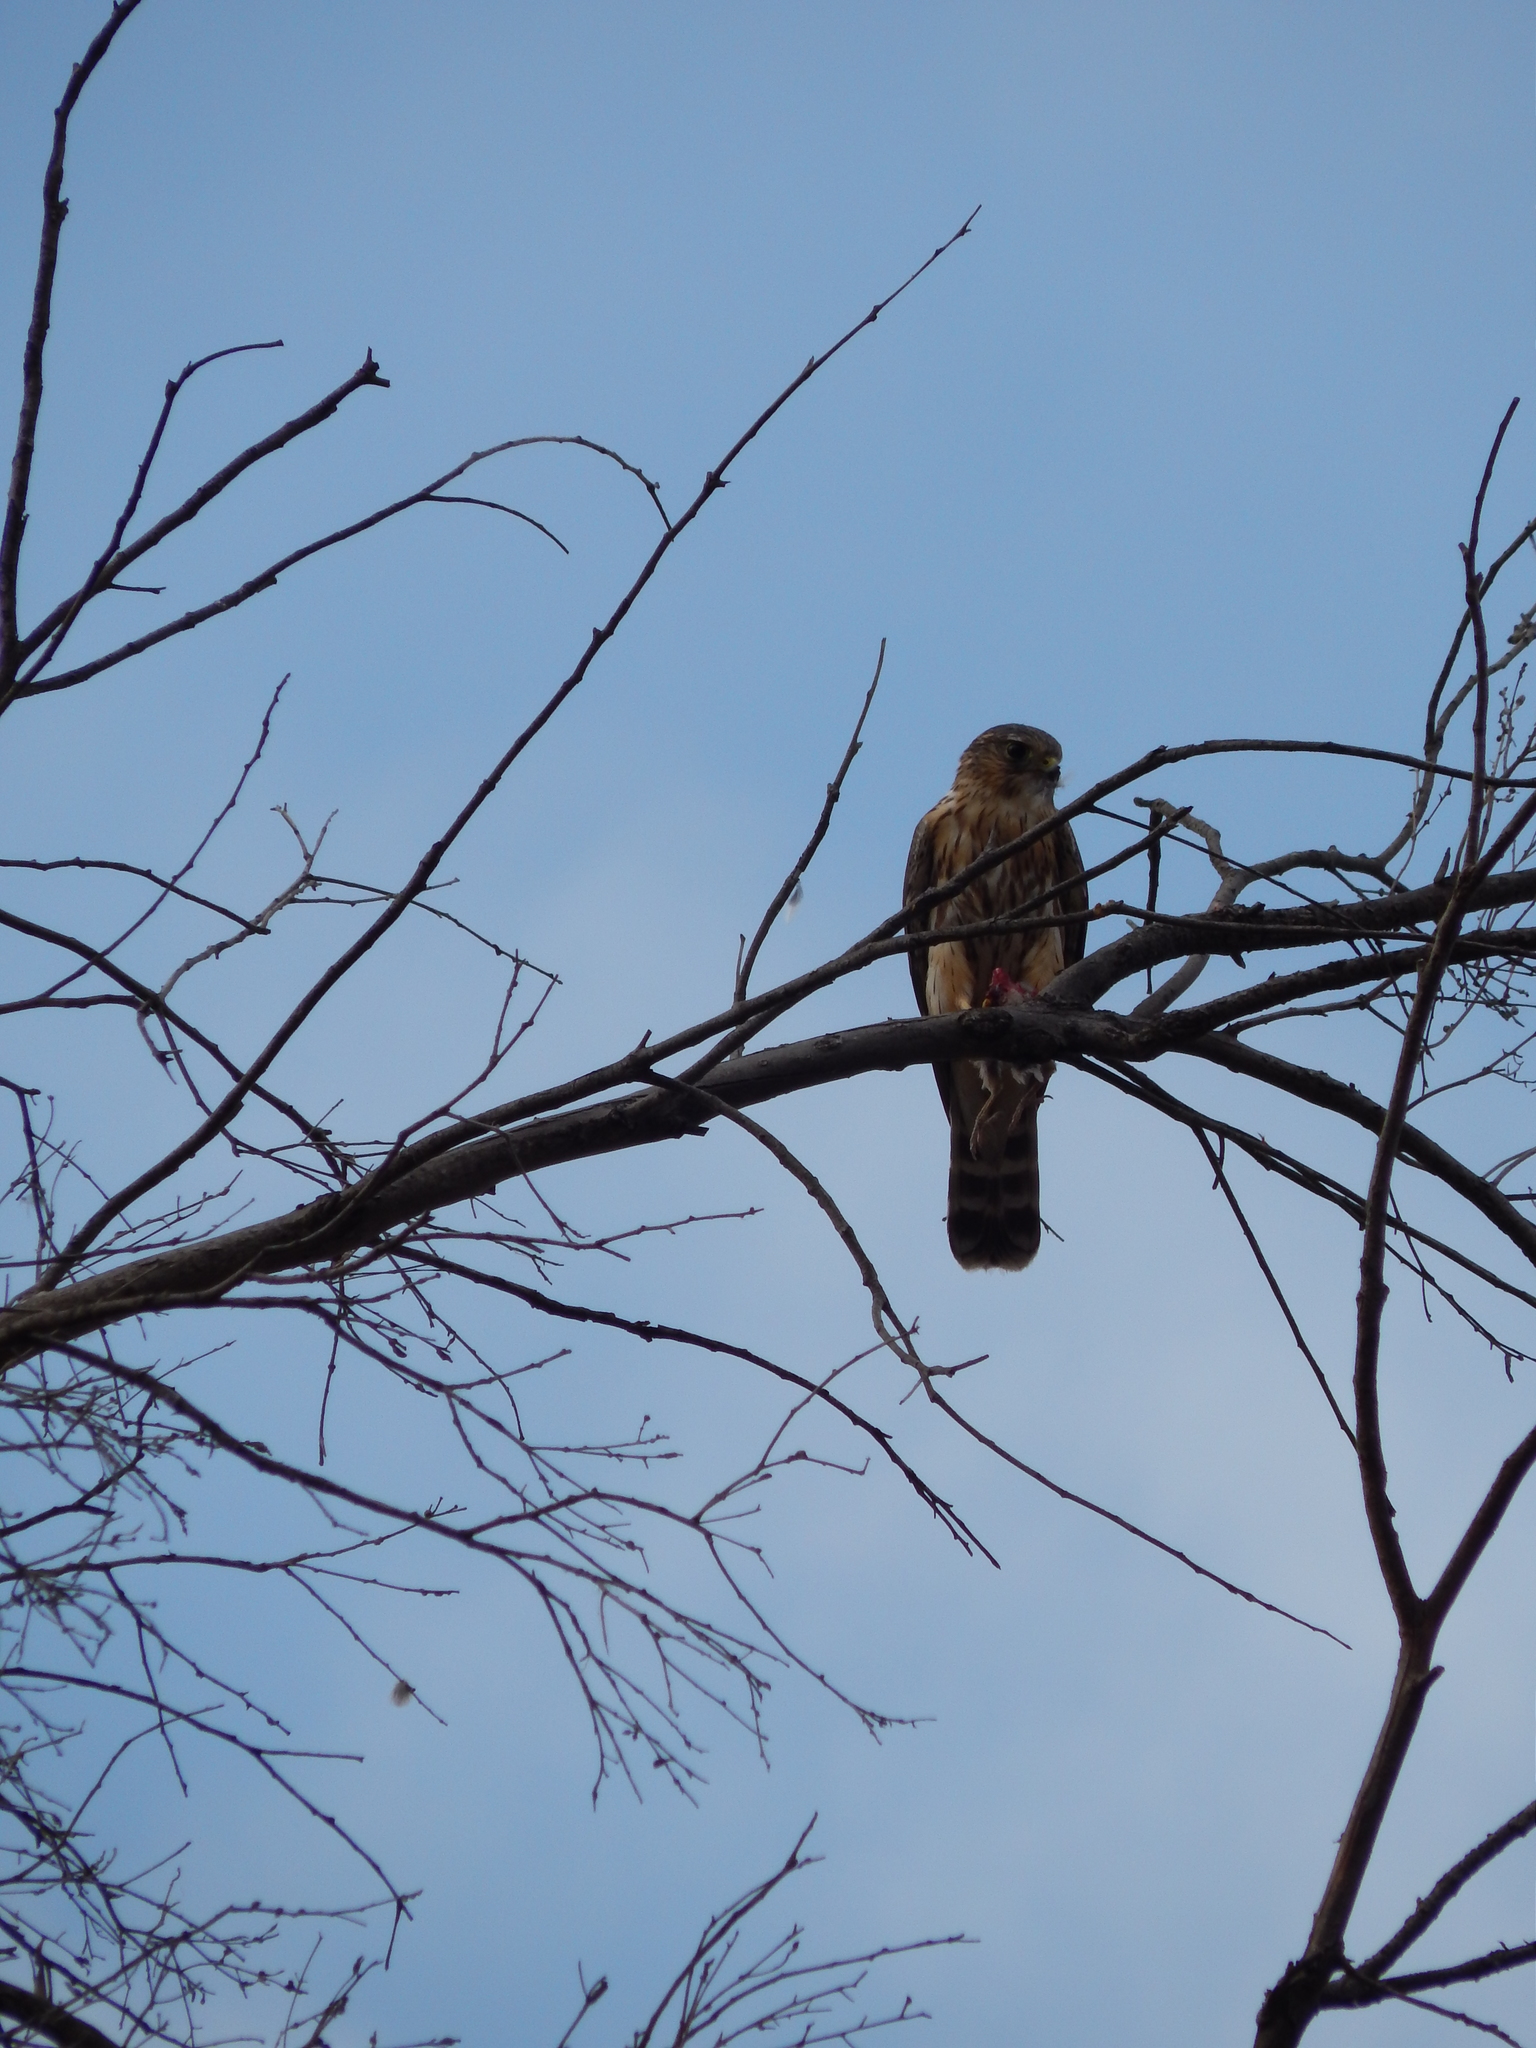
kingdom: Animalia
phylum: Chordata
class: Aves
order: Falconiformes
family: Falconidae
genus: Falco
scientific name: Falco columbarius
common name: Merlin
